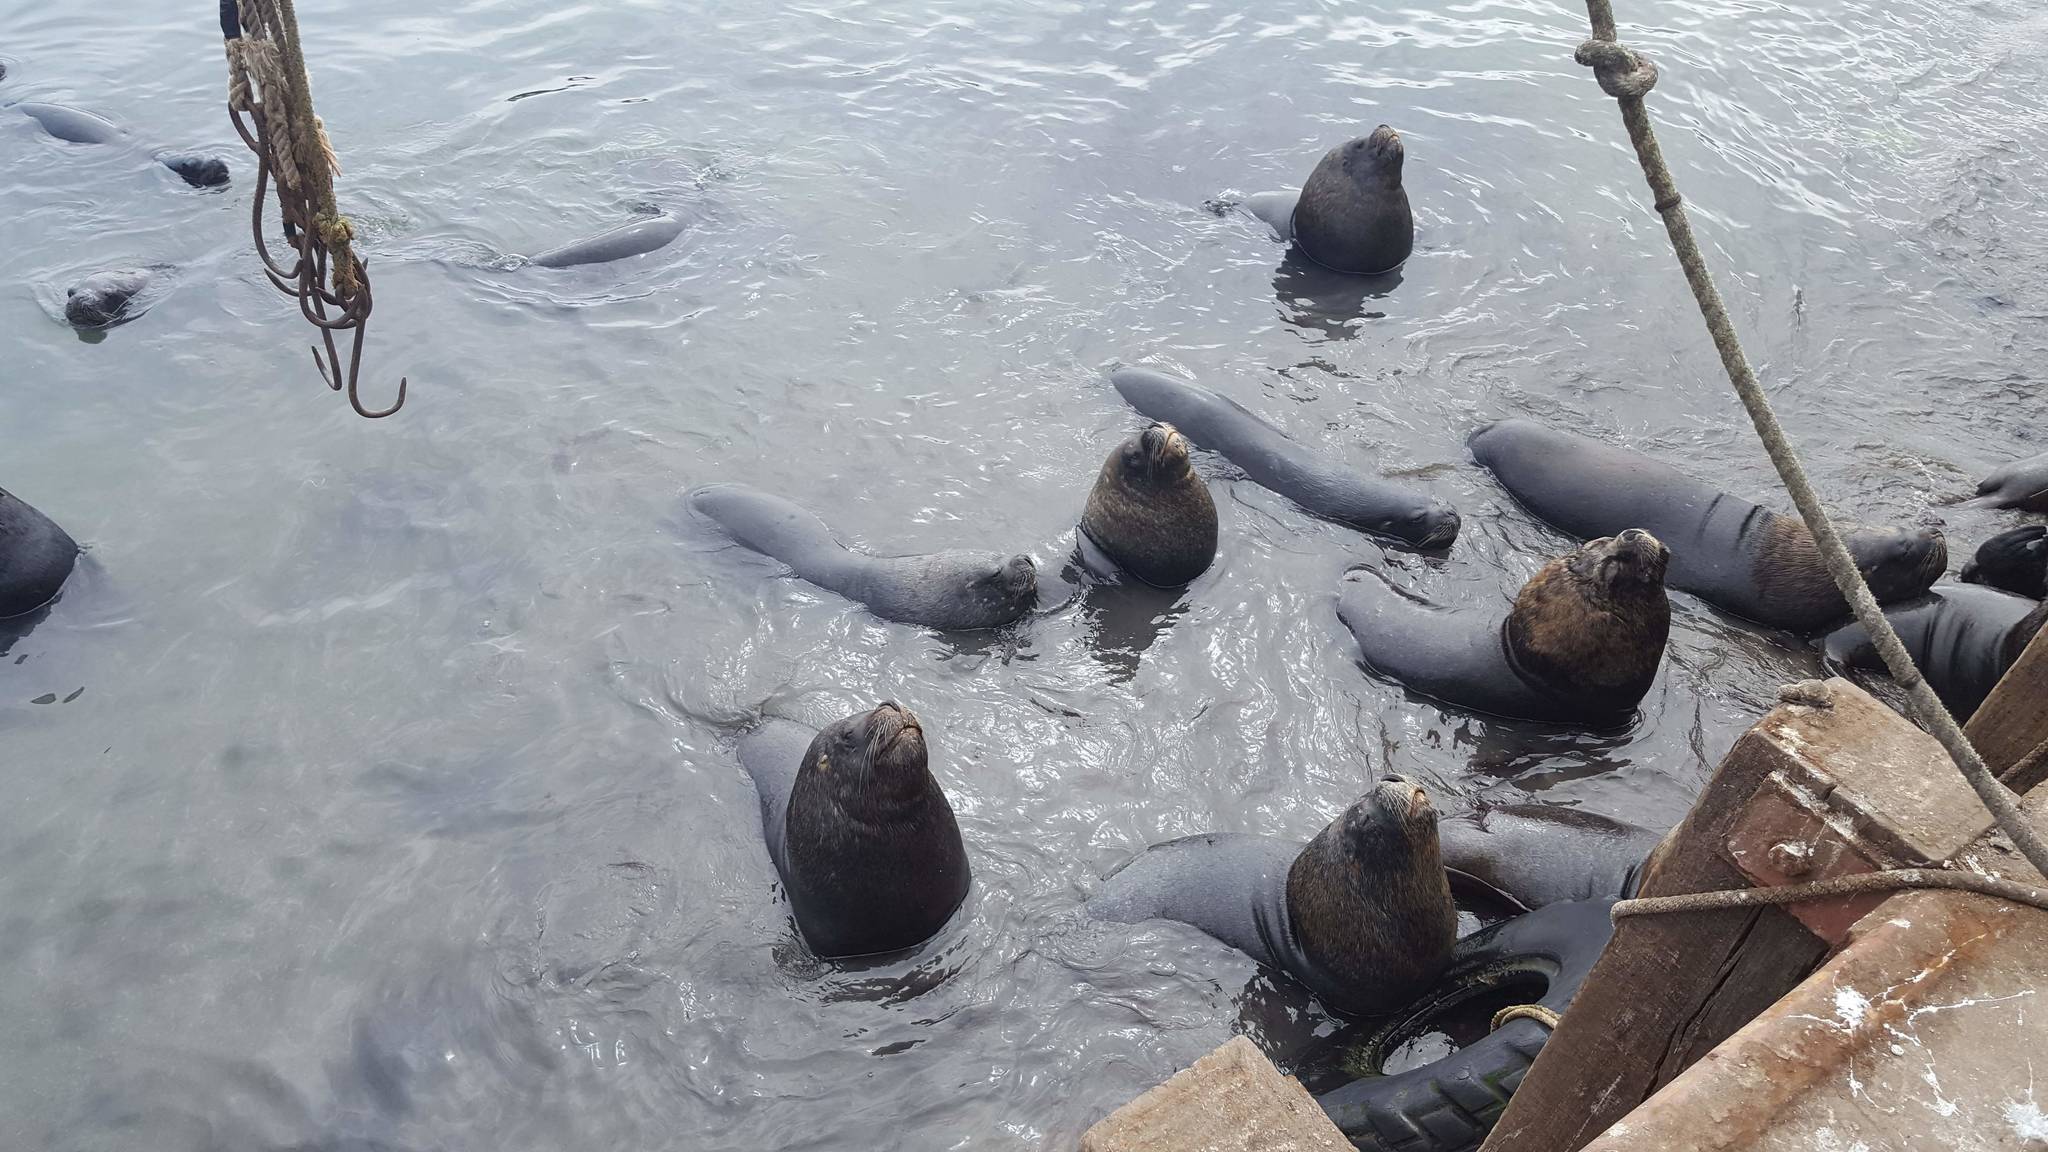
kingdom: Animalia
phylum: Chordata
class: Mammalia
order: Carnivora
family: Otariidae
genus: Otaria
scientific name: Otaria byronia
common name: South american sea lion
